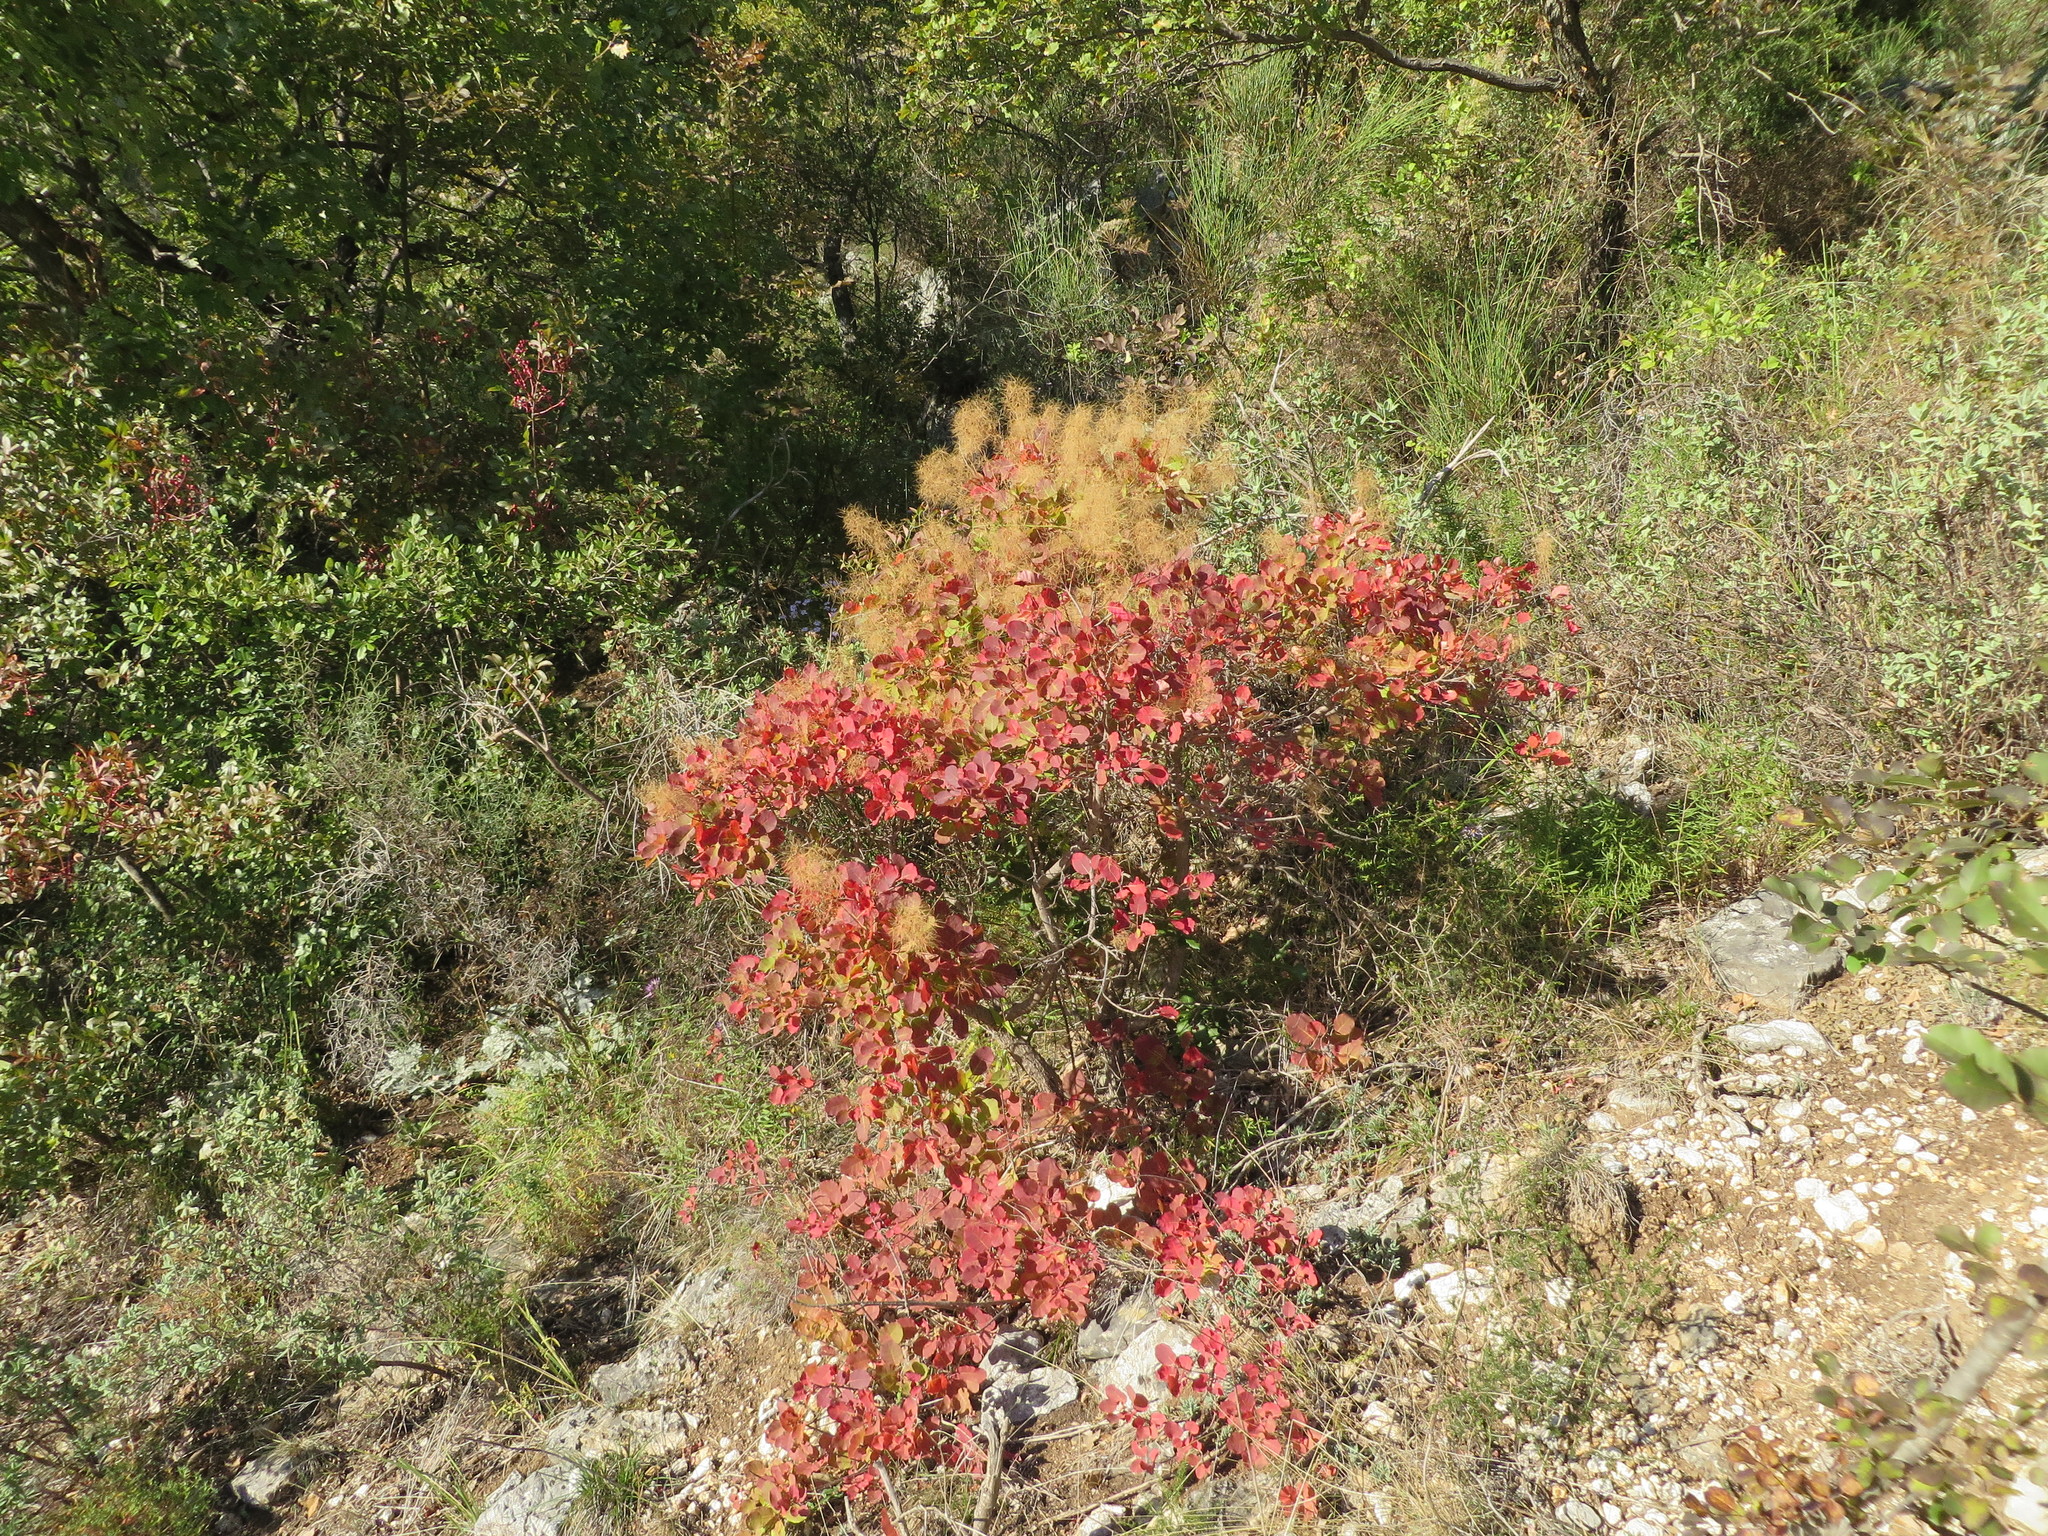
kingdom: Plantae
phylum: Tracheophyta
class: Magnoliopsida
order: Sapindales
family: Anacardiaceae
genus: Cotinus
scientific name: Cotinus coggygria
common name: Smoke-tree
